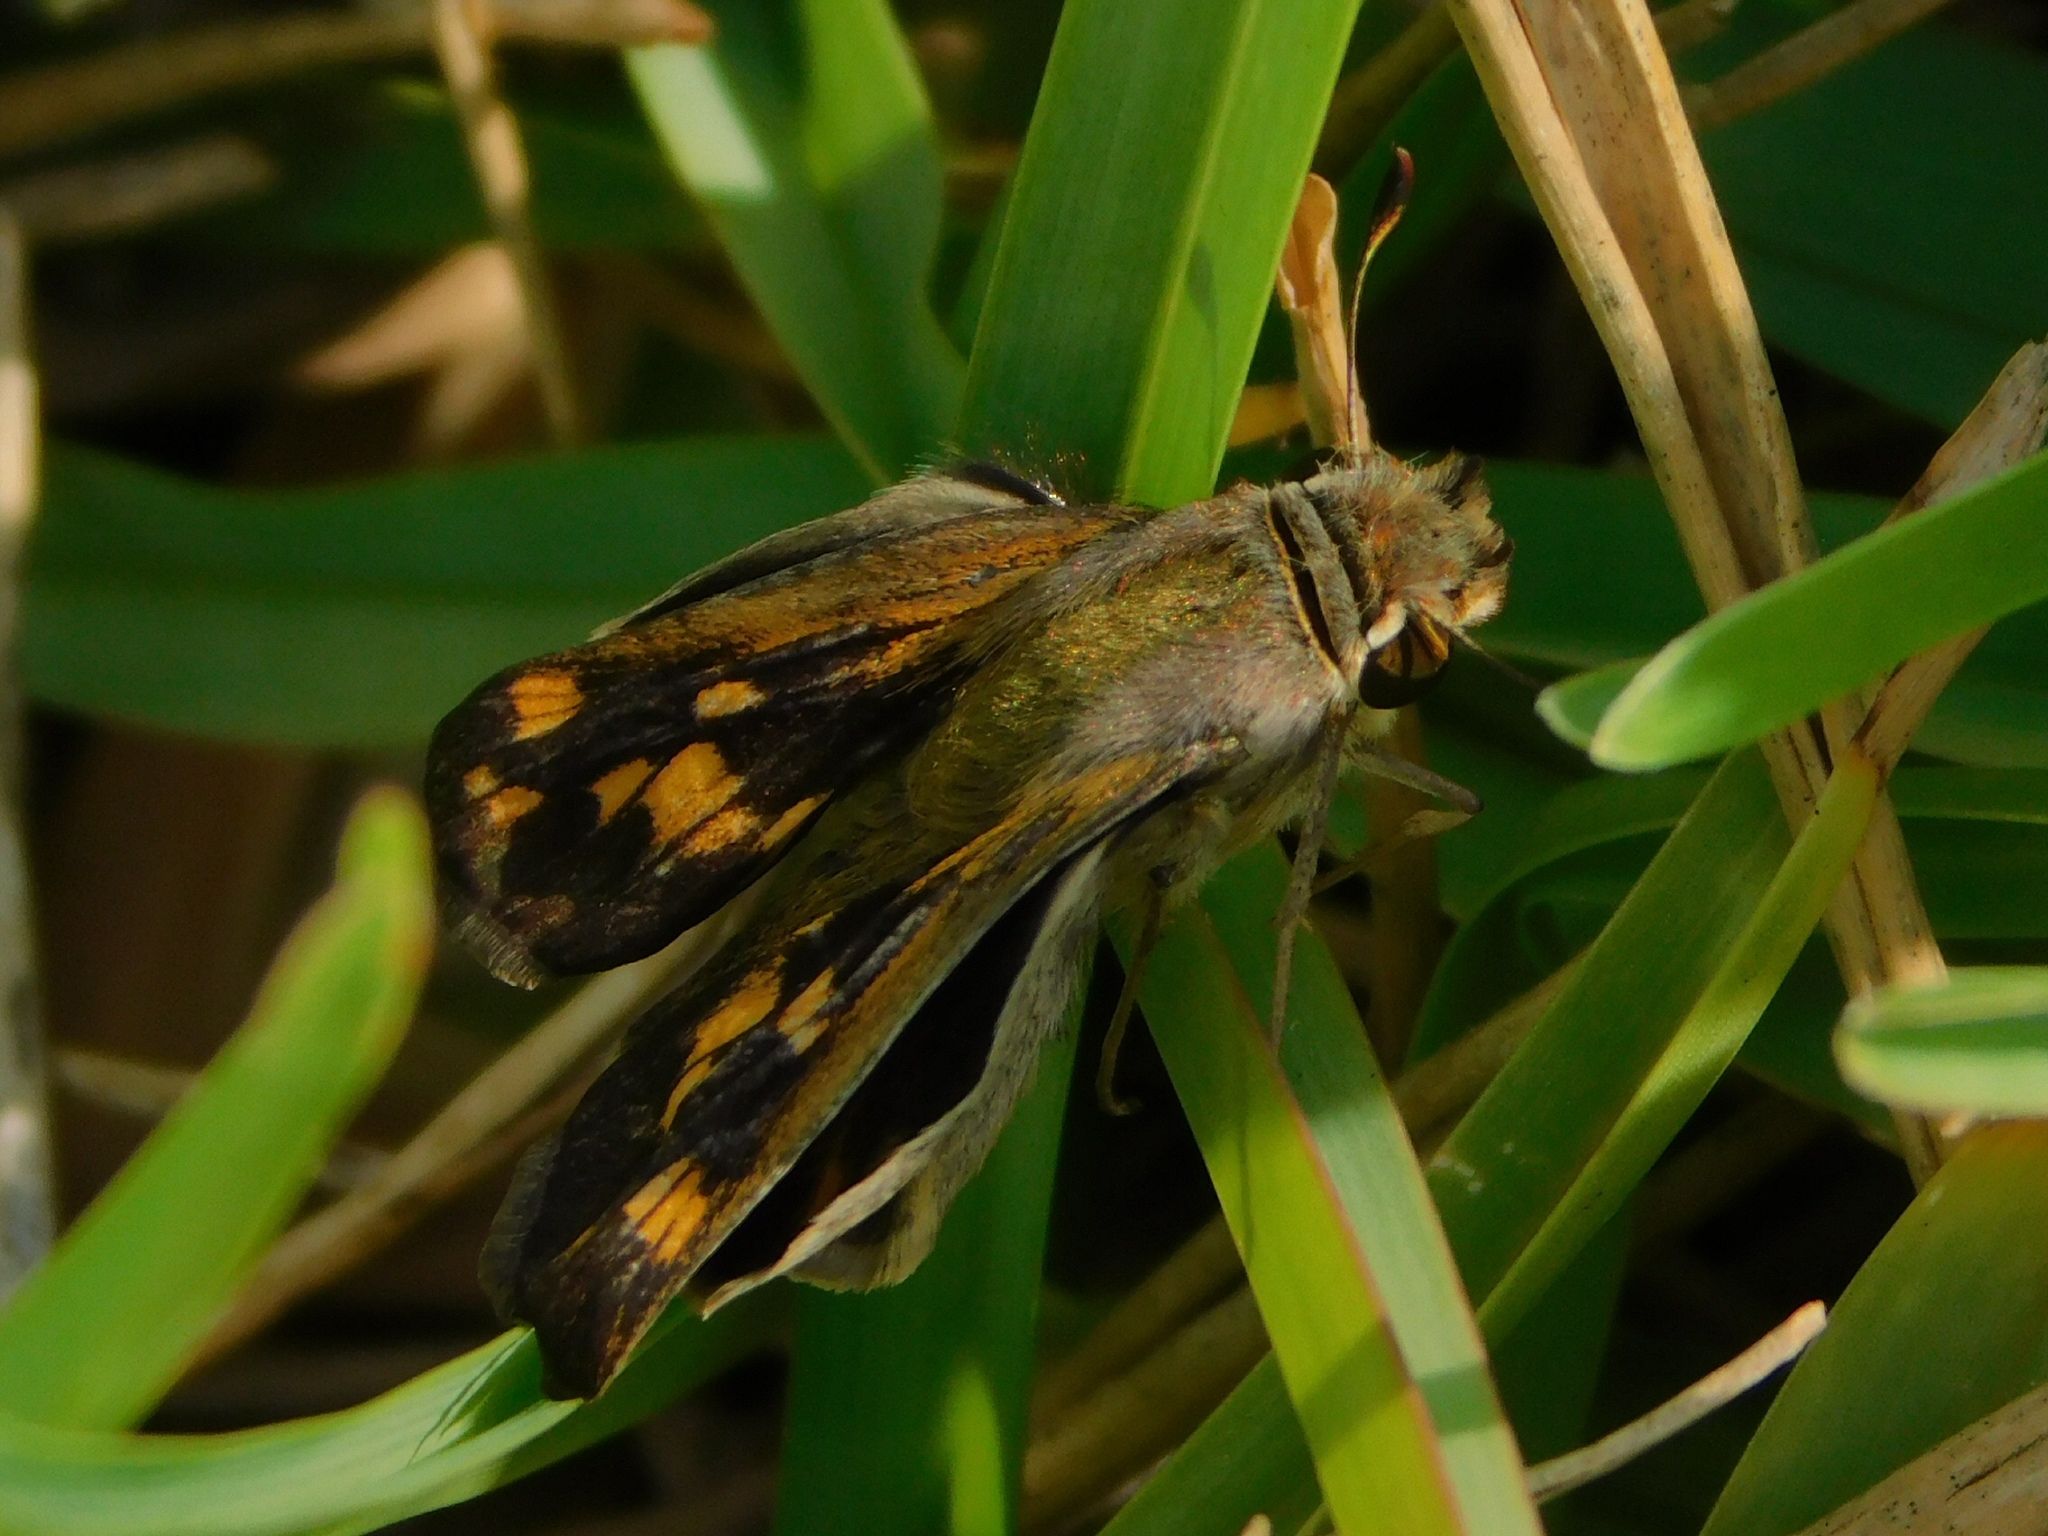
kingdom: Animalia
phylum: Arthropoda
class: Insecta
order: Lepidoptera
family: Hesperiidae
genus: Hylephila
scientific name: Hylephila phyleus
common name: Fiery skipper
